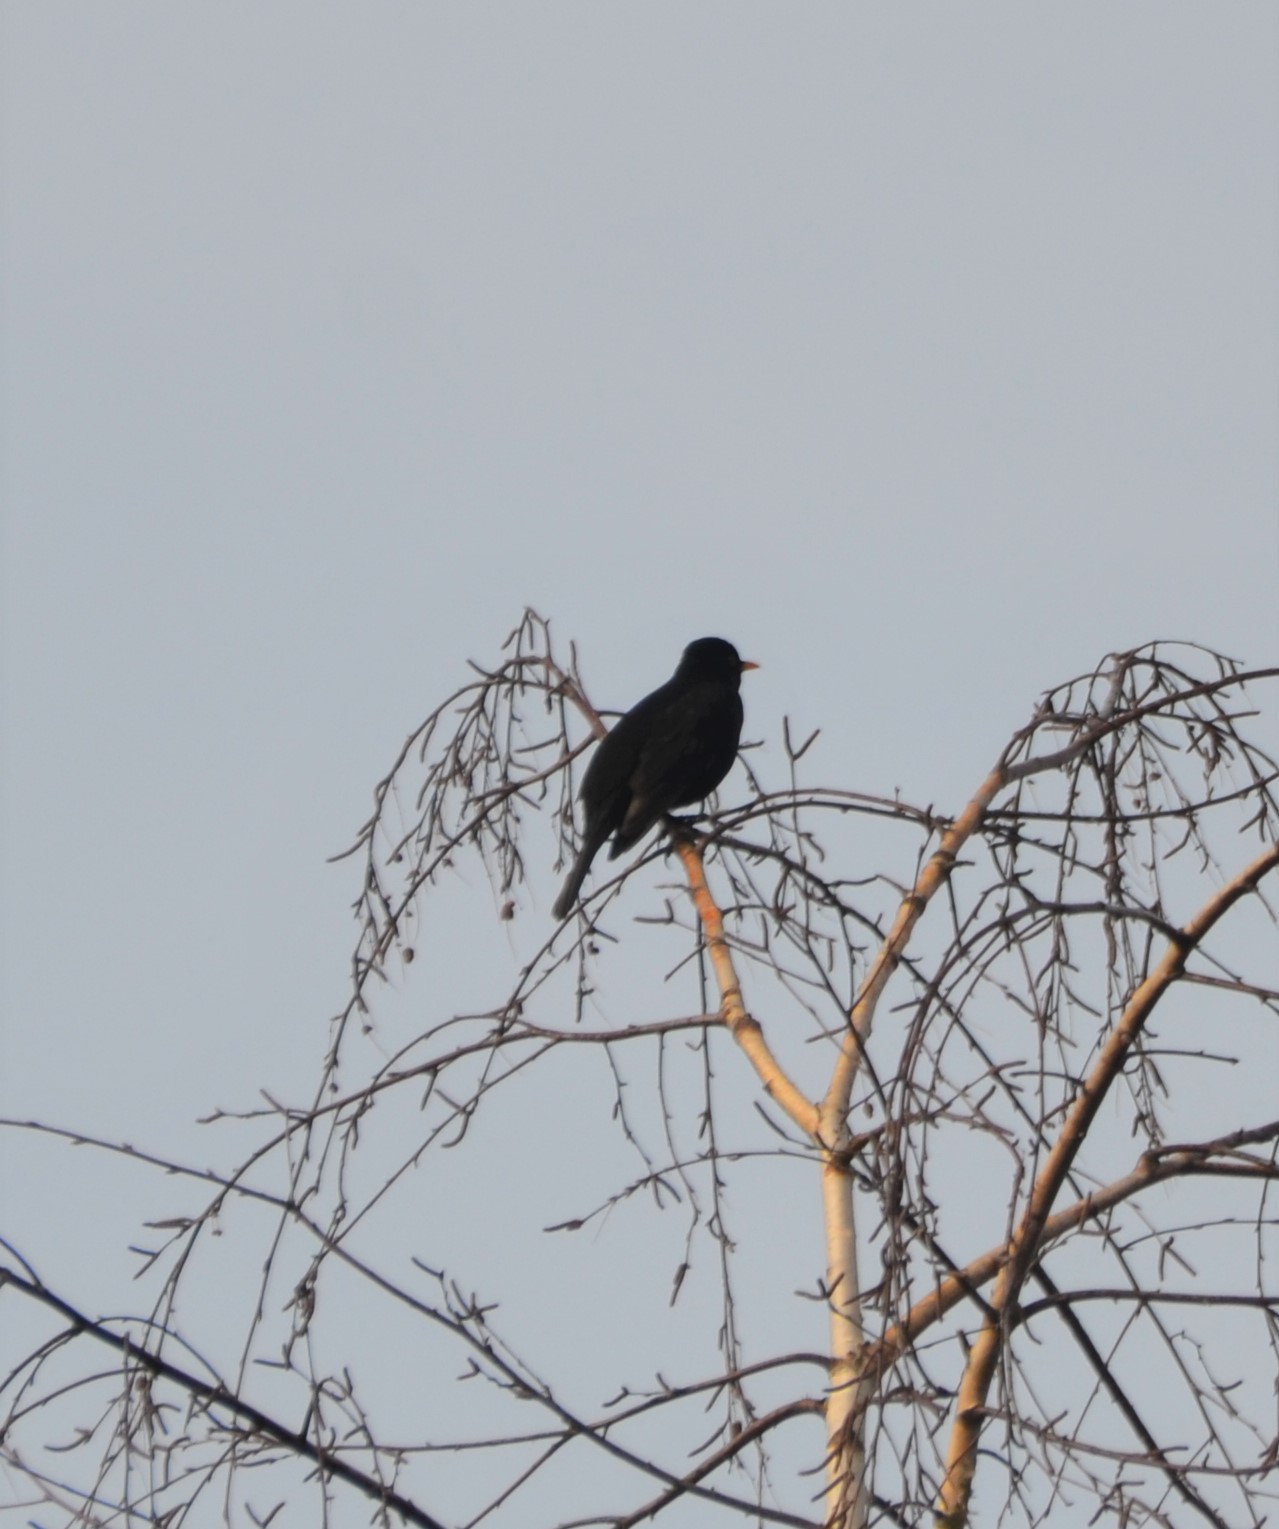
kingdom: Animalia
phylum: Chordata
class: Aves
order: Passeriformes
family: Turdidae
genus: Turdus
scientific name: Turdus merula
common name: Common blackbird
